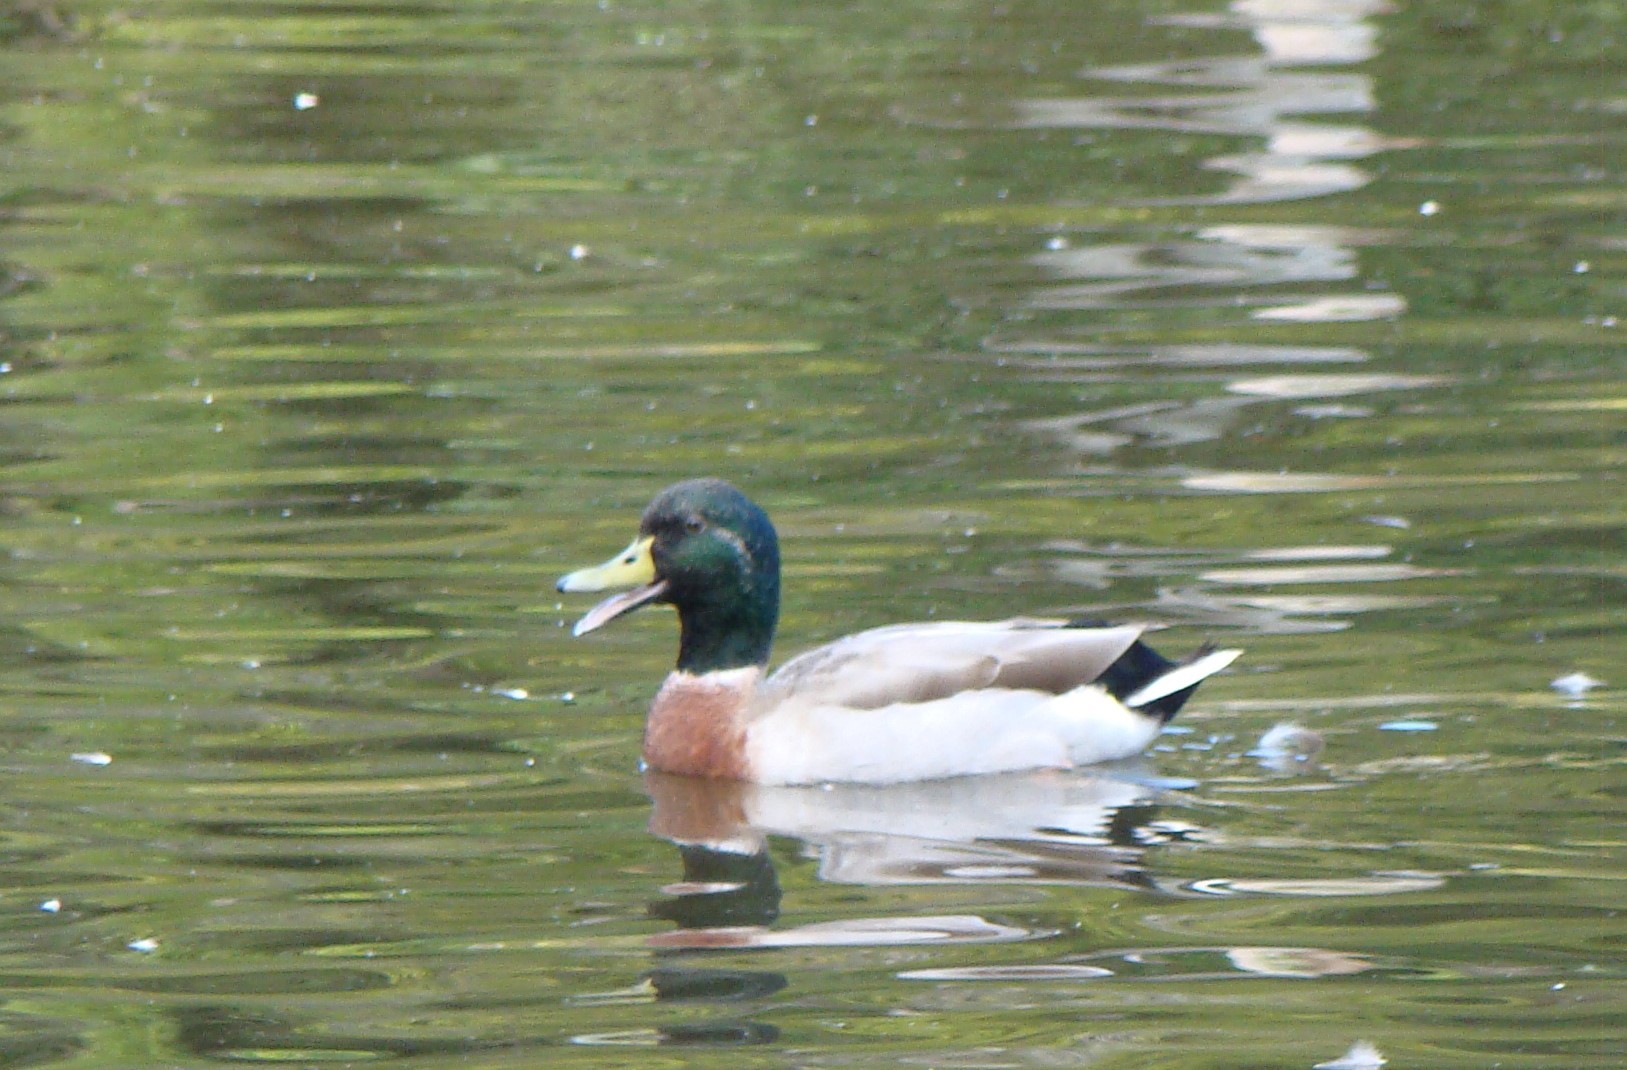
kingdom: Animalia
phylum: Chordata
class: Aves
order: Anseriformes
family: Anatidae
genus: Anas
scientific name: Anas platyrhynchos
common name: Mallard
